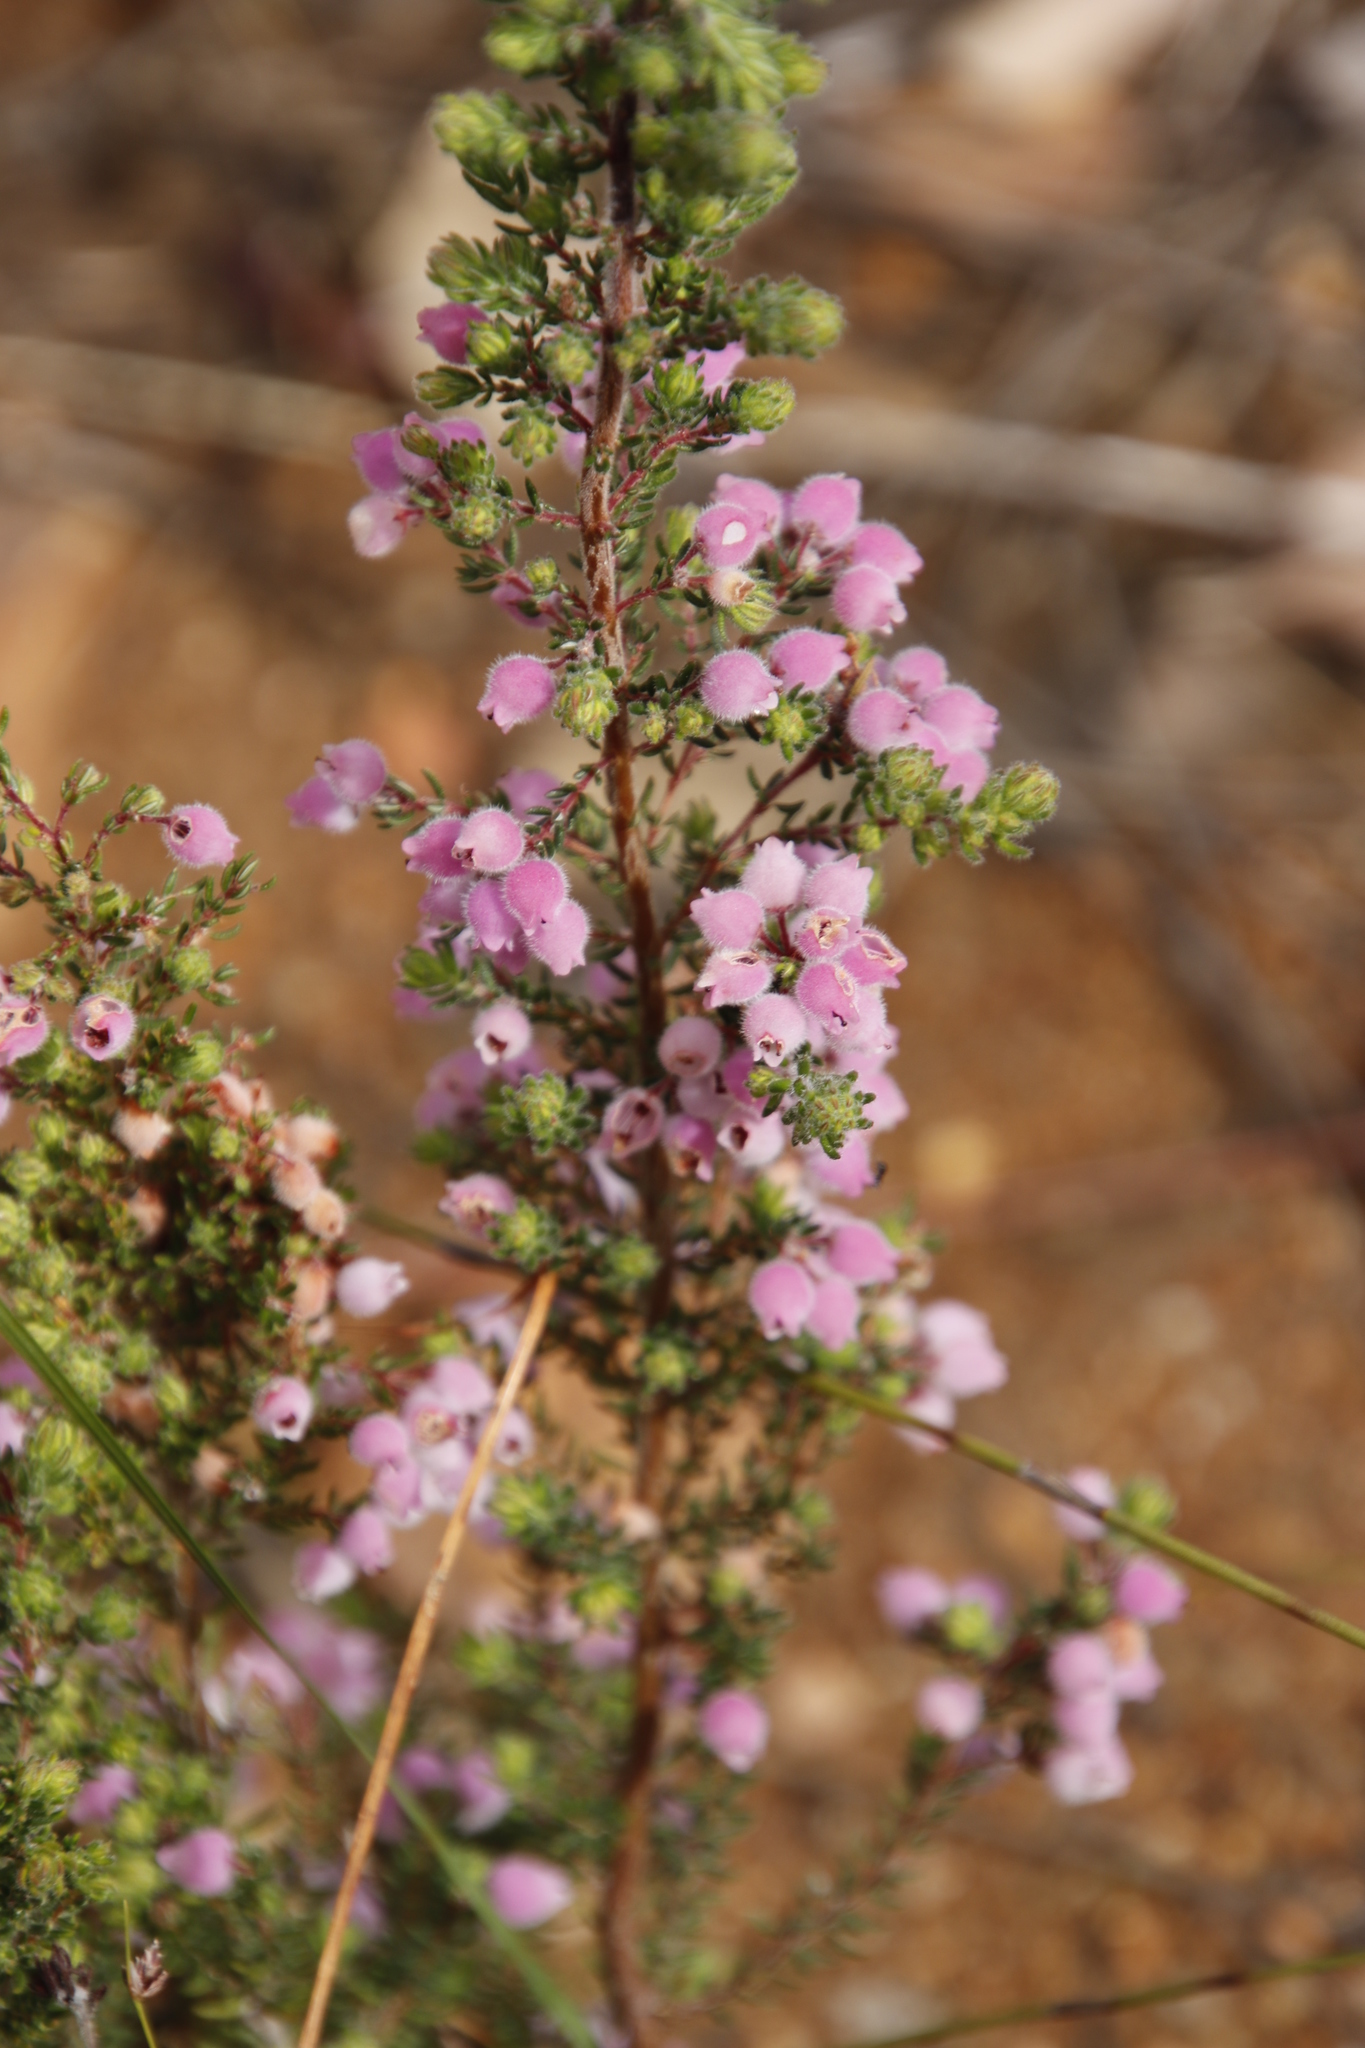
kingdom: Plantae
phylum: Tracheophyta
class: Magnoliopsida
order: Ericales
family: Ericaceae
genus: Erica
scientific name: Erica hirtiflora
